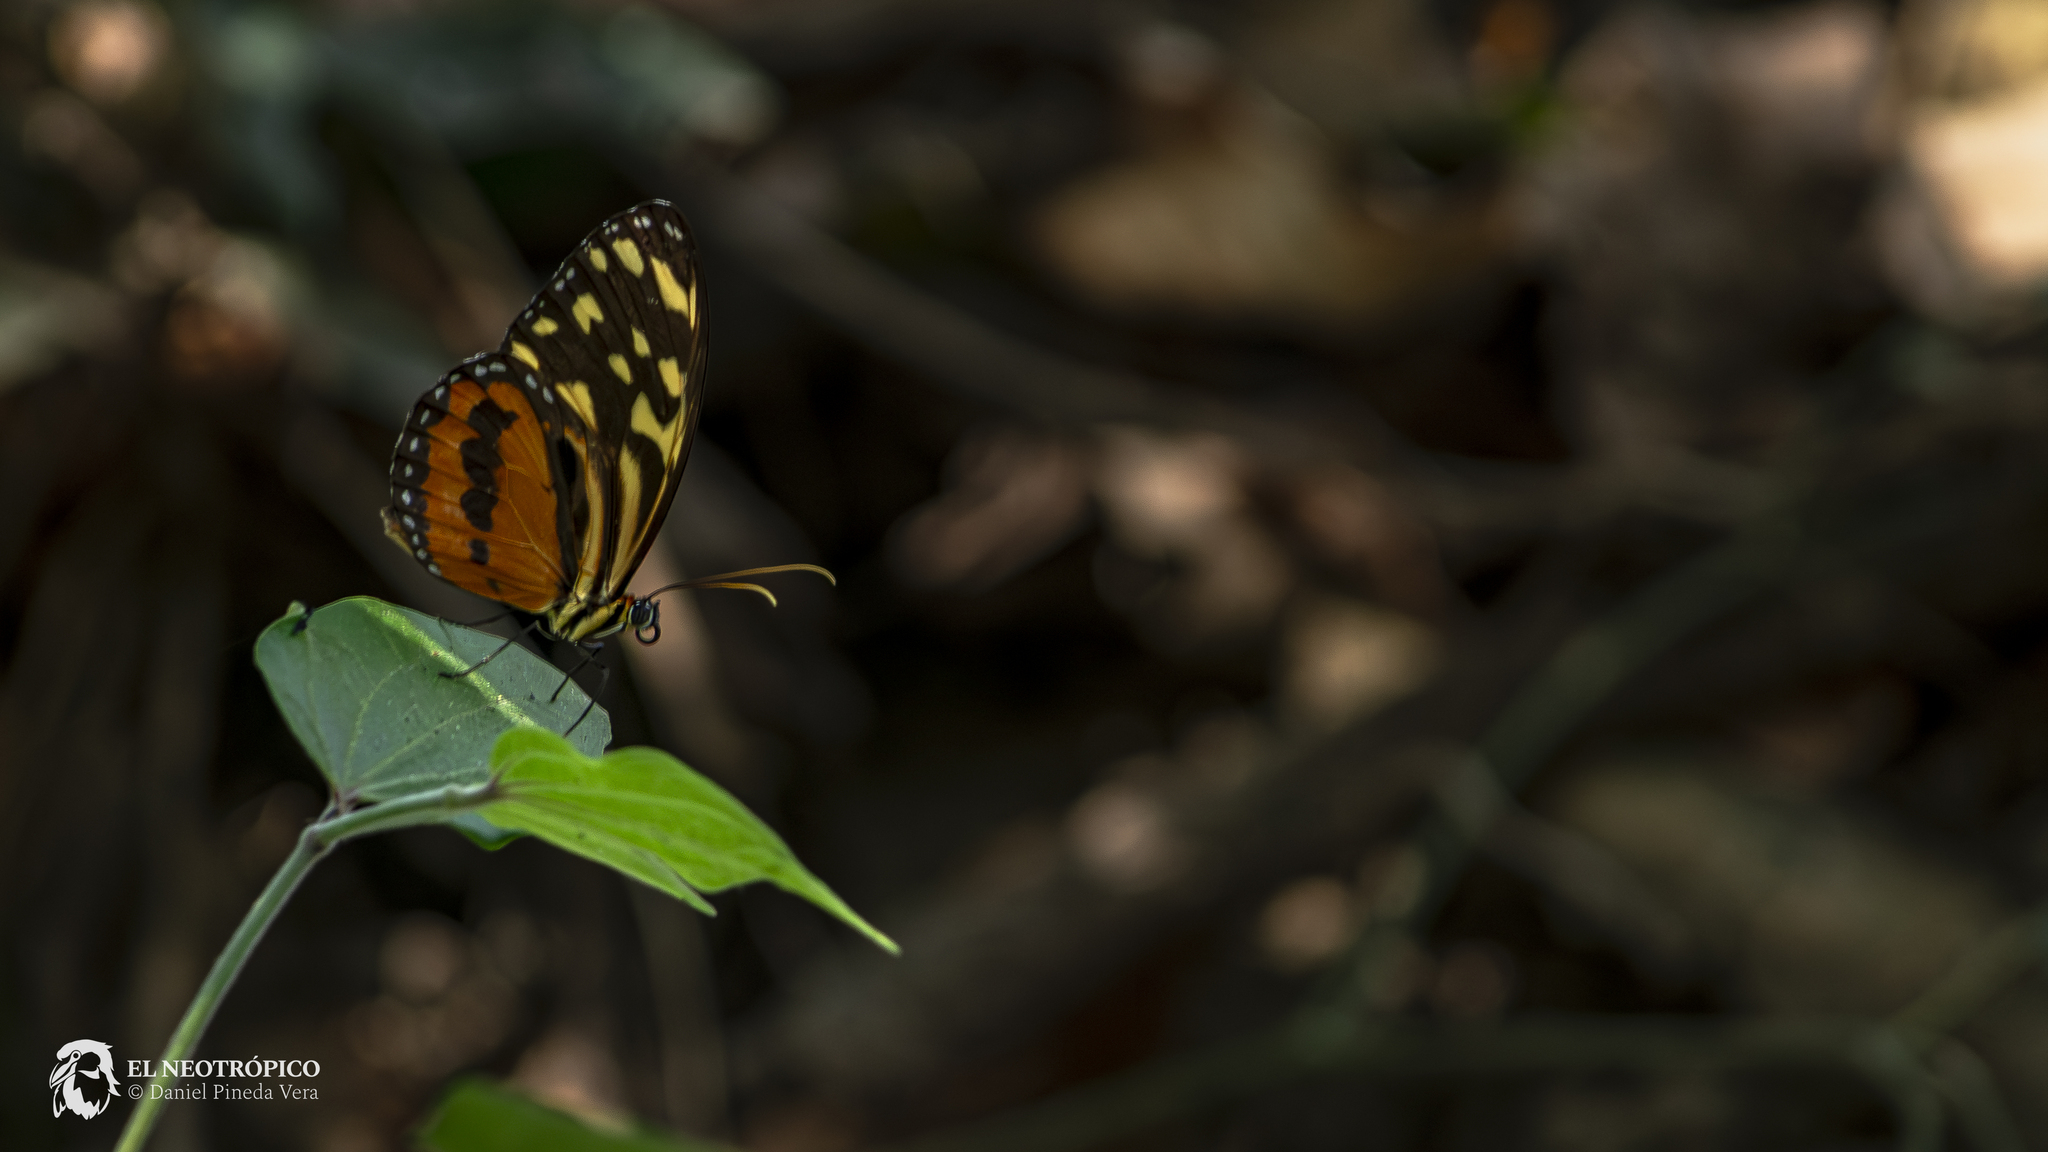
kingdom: Animalia
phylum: Arthropoda
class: Insecta
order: Lepidoptera
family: Nymphalidae
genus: Tithorea
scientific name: Tithorea harmonia
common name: Harmonia tigerwing
